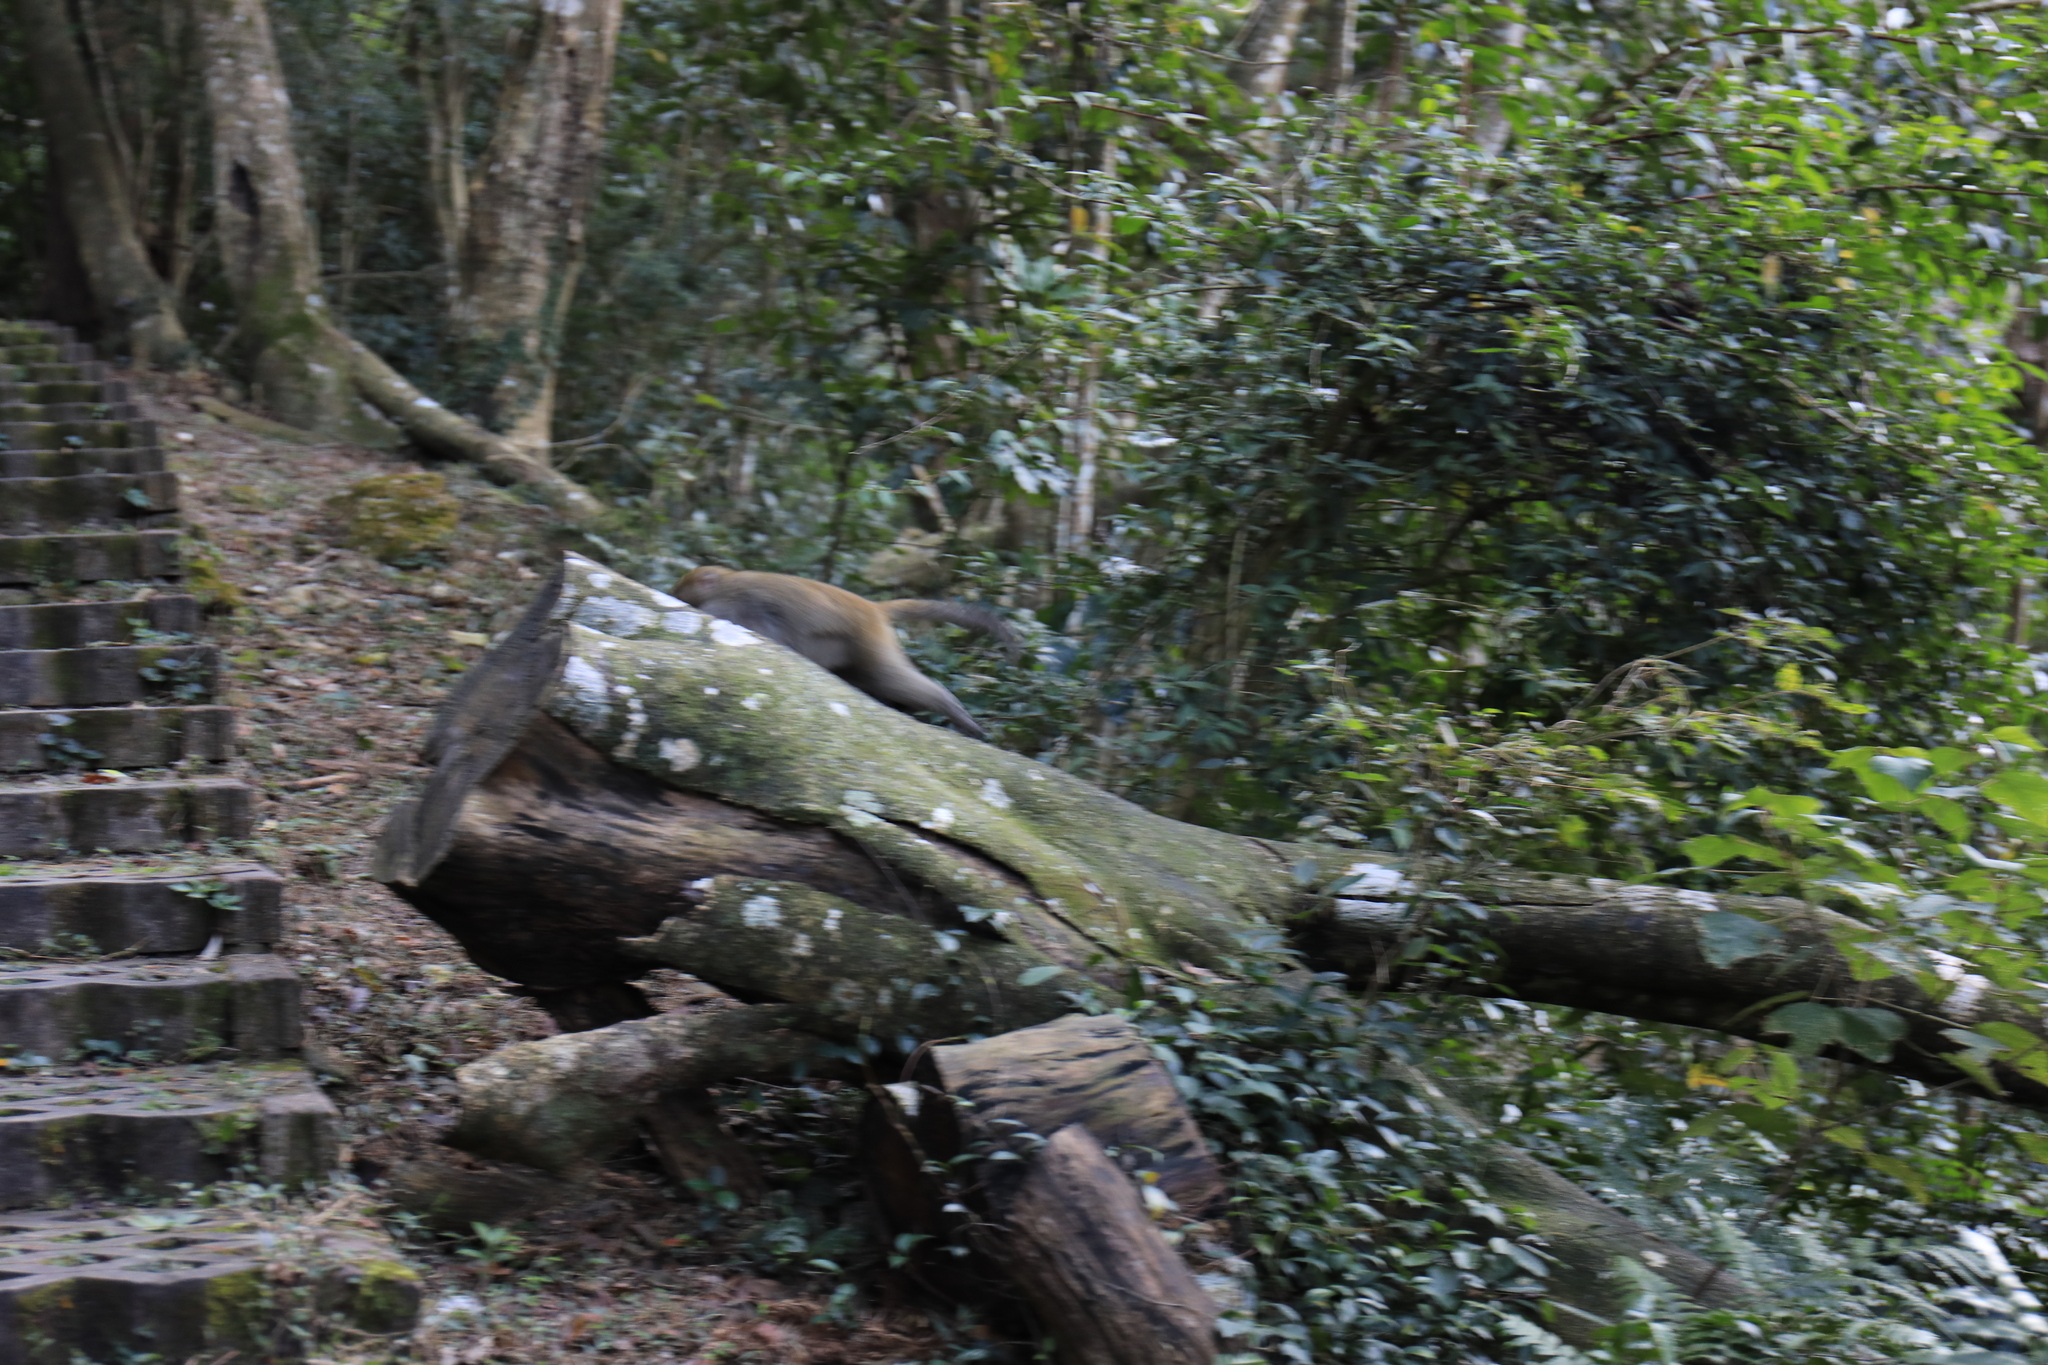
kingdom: Animalia
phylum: Chordata
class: Mammalia
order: Primates
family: Cercopithecidae
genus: Macaca
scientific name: Macaca cyclopis
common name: Formosan rock macaque
